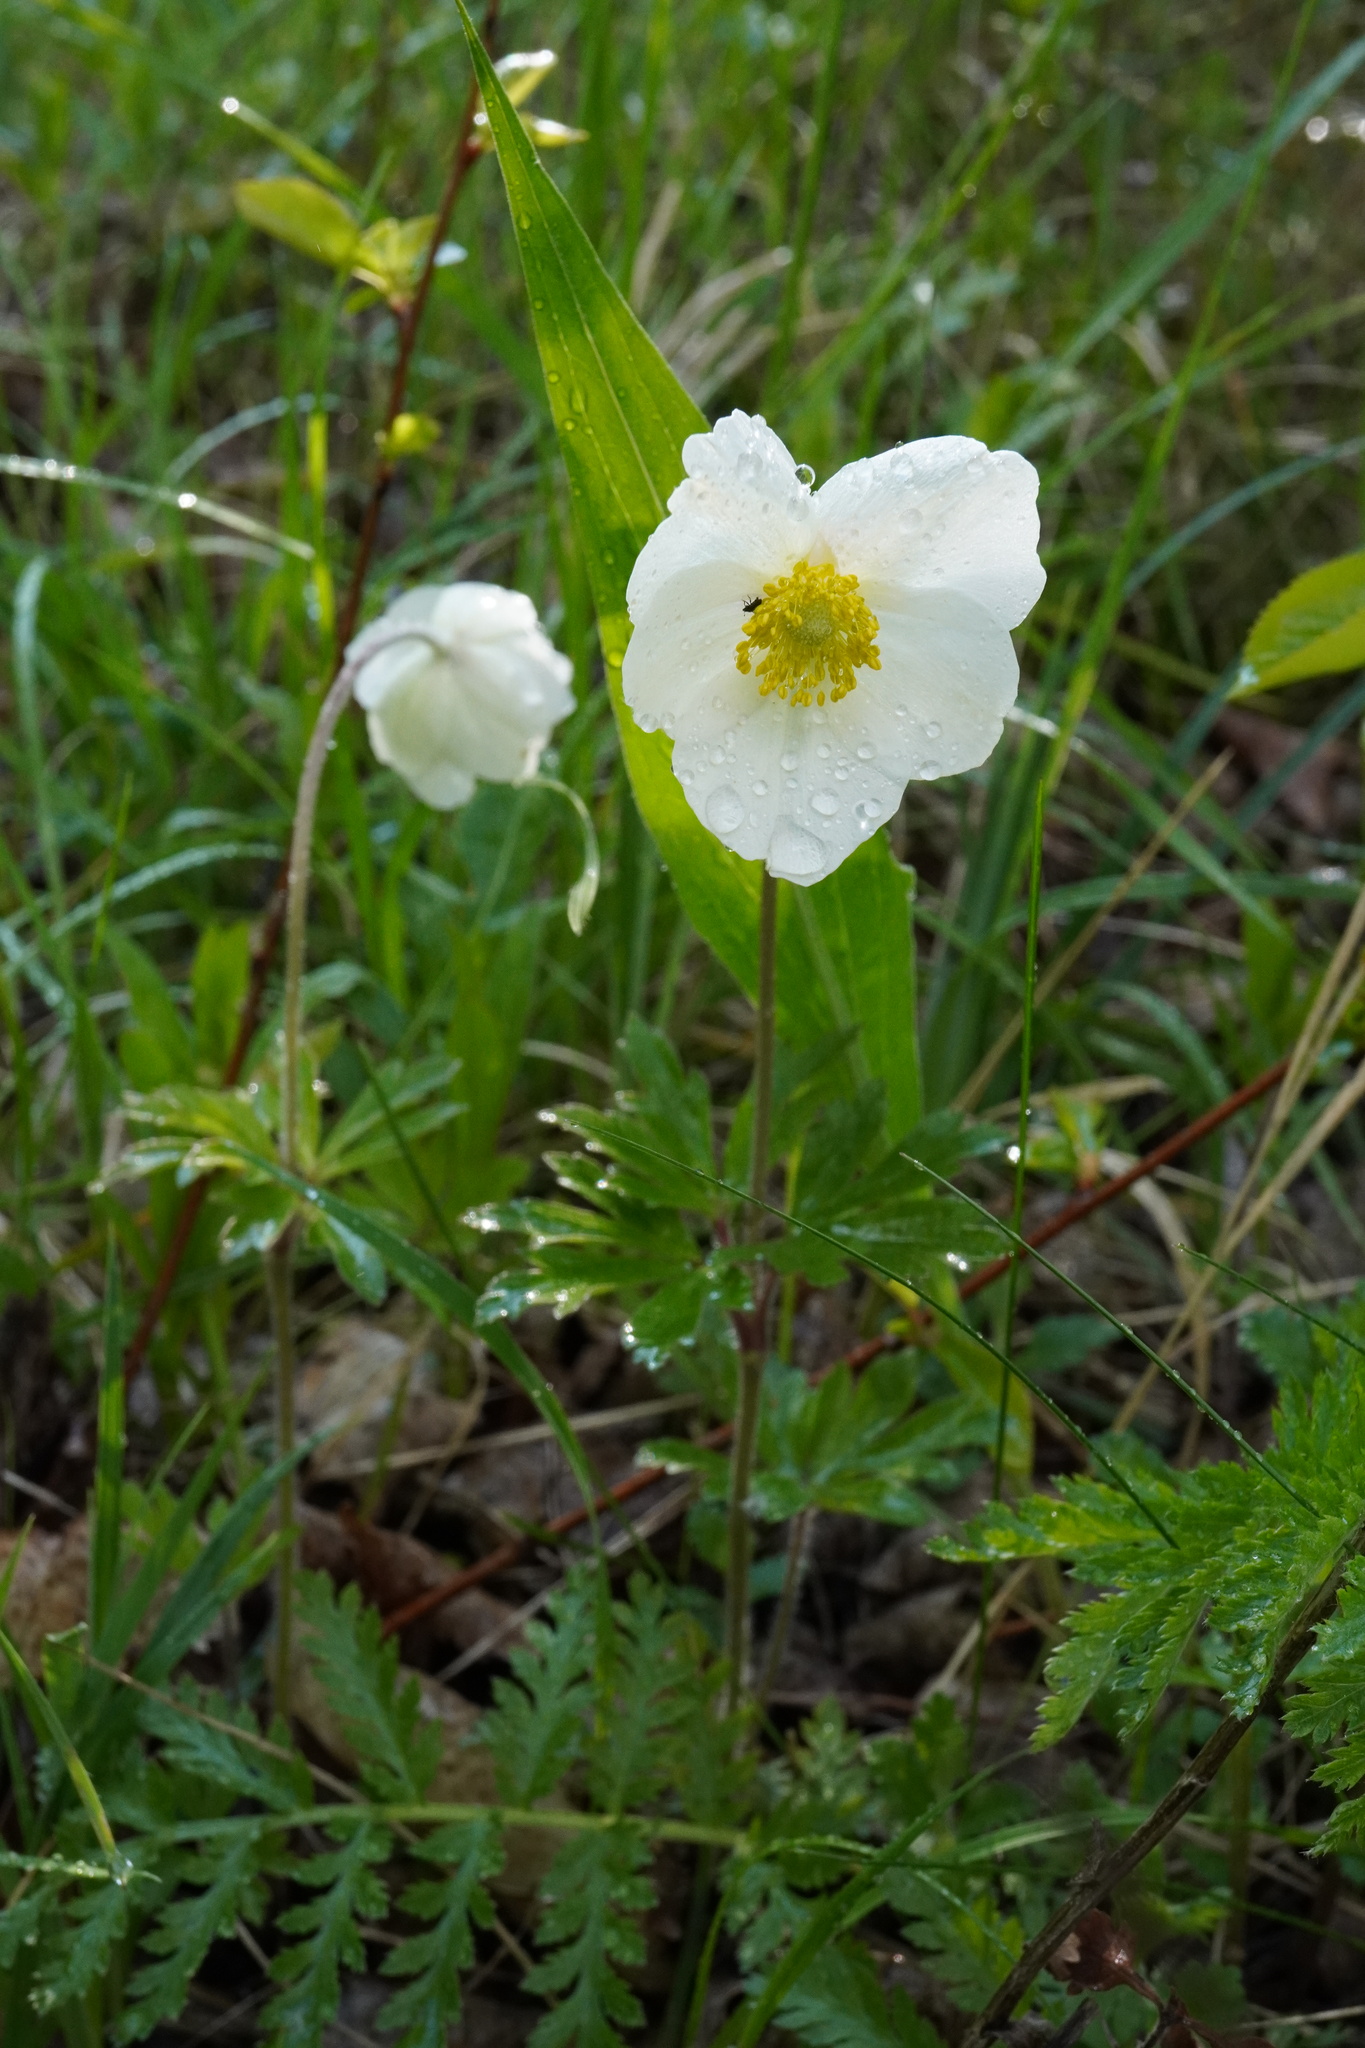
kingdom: Plantae
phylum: Tracheophyta
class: Magnoliopsida
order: Ranunculales
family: Ranunculaceae
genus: Anemone
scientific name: Anemone sylvestris
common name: Snowdrop anemone
